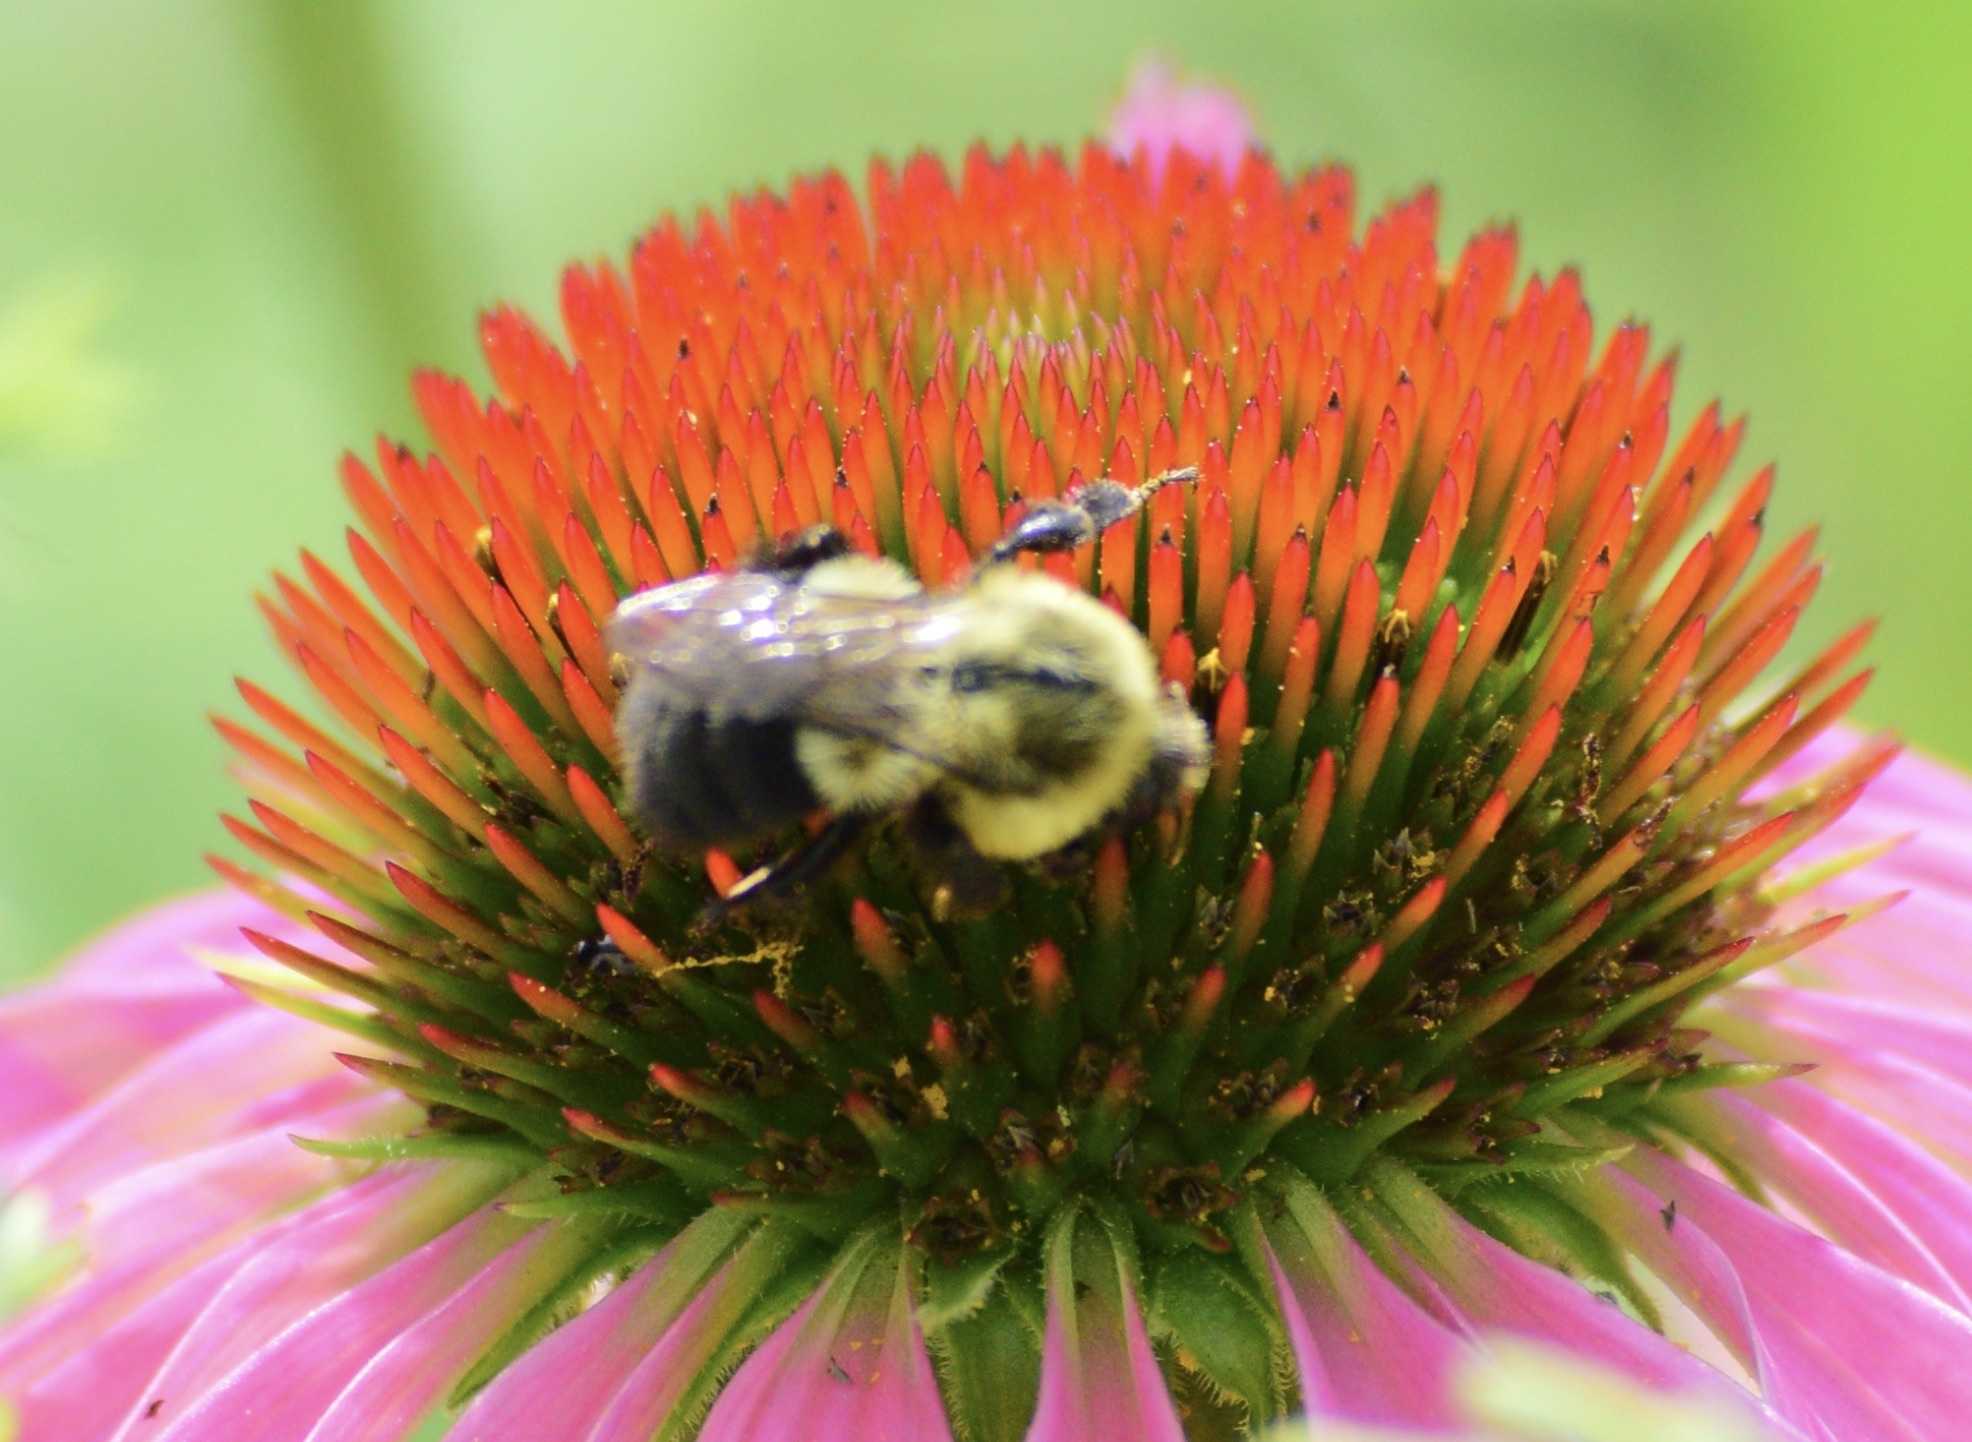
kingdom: Animalia
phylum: Arthropoda
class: Insecta
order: Hymenoptera
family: Apidae
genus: Bombus
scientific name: Bombus impatiens
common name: Common eastern bumble bee
